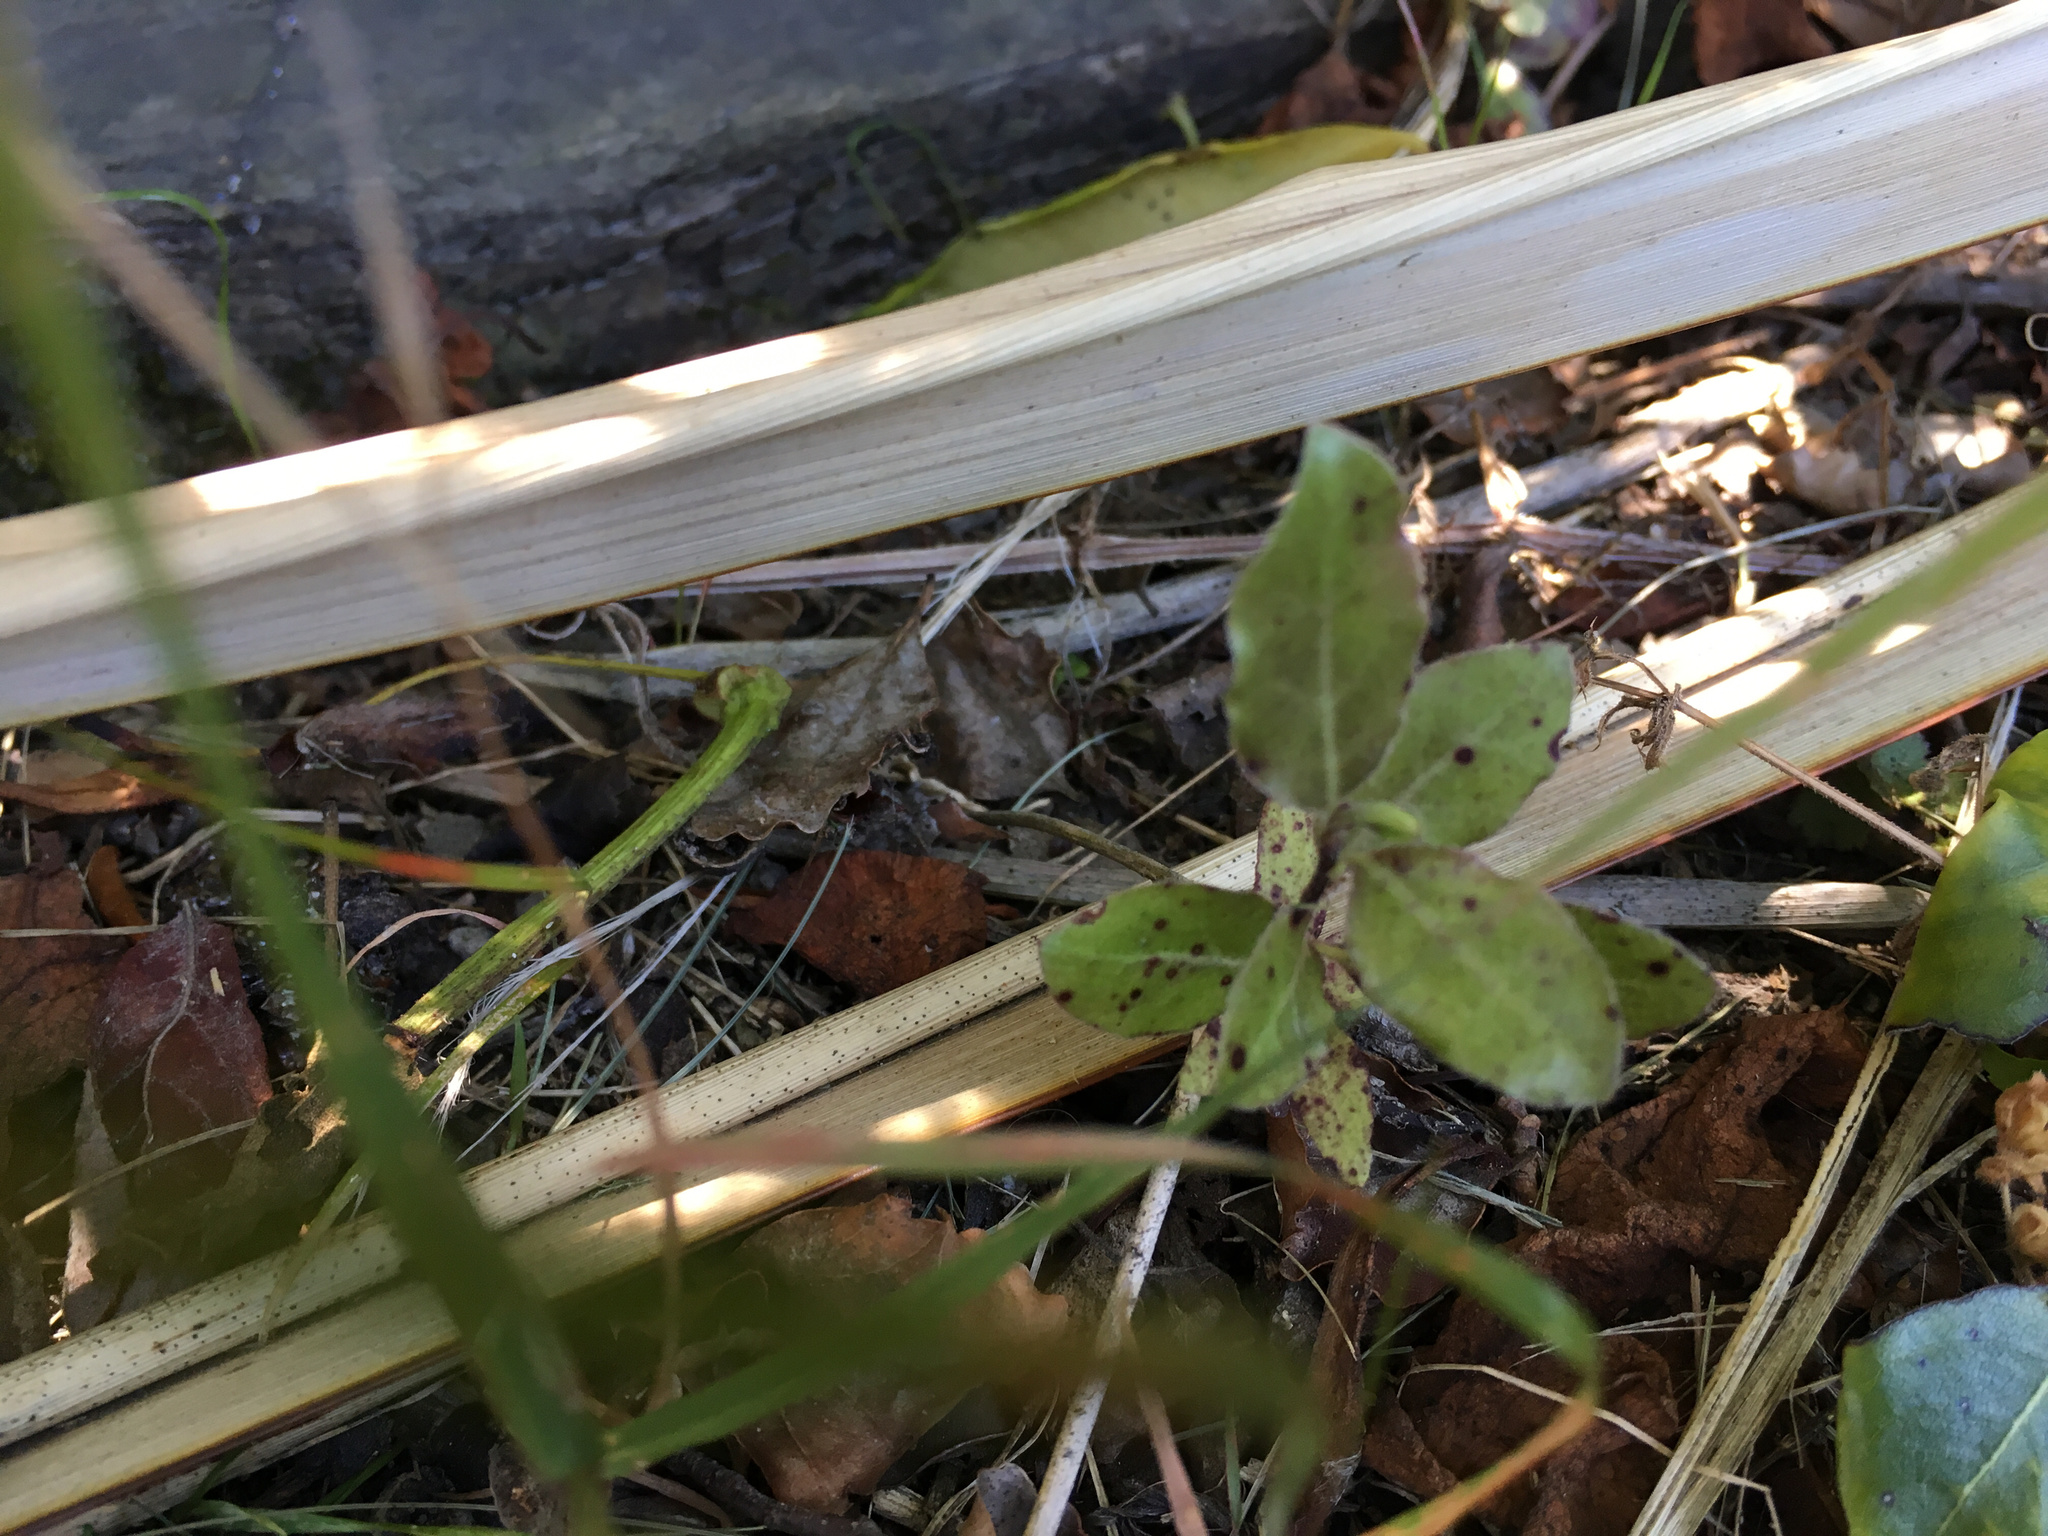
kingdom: Plantae
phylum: Tracheophyta
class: Magnoliopsida
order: Apiales
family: Pittosporaceae
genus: Pittosporum
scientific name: Pittosporum tenuifolium
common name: Kohuhu
